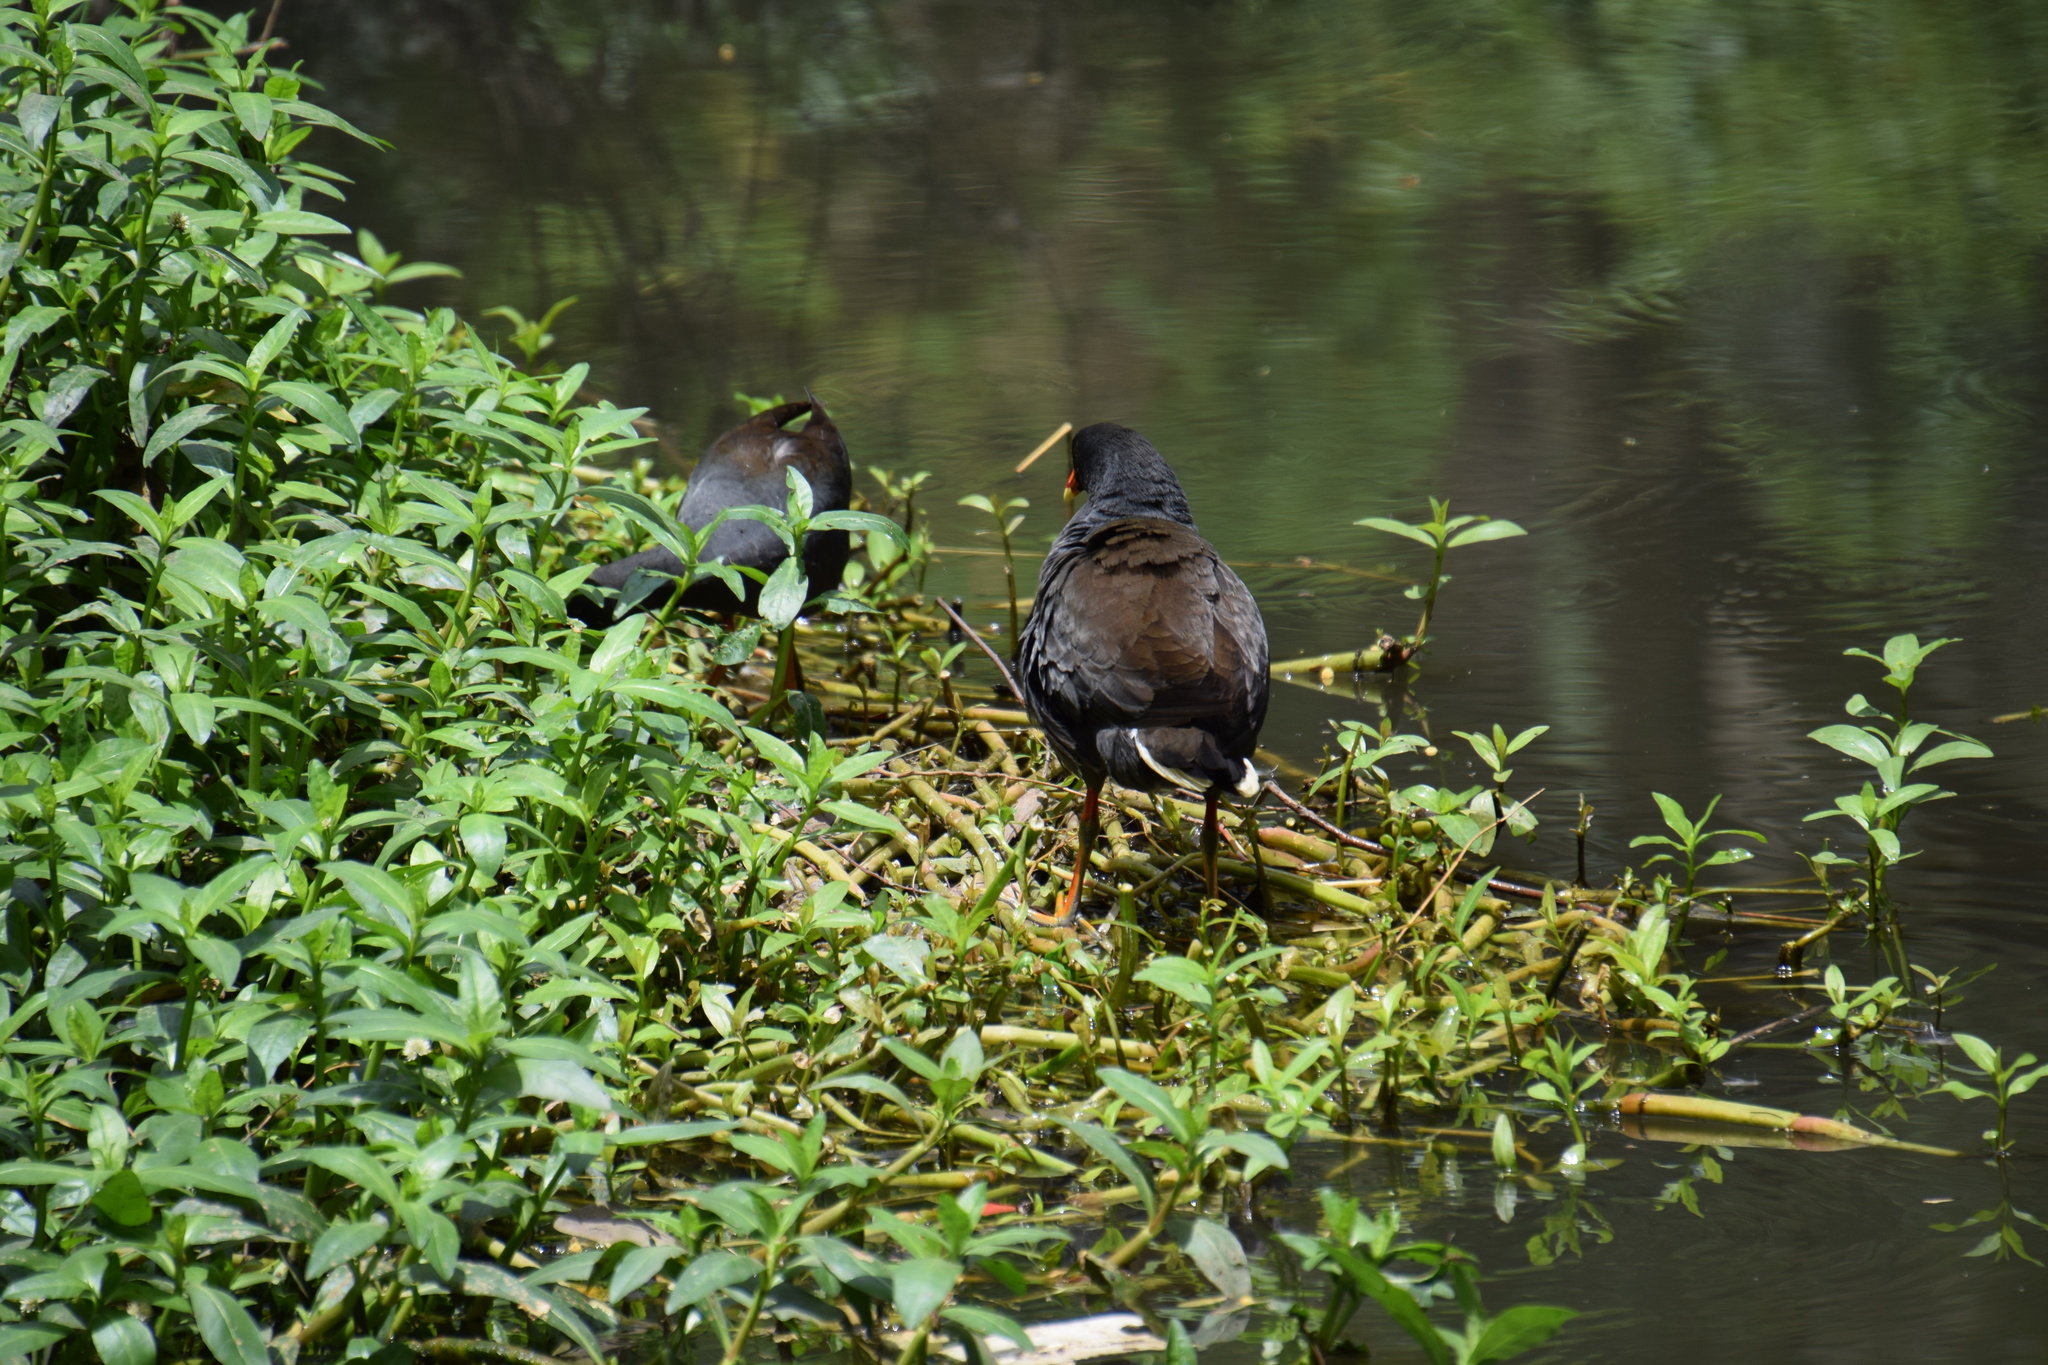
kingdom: Animalia
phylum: Chordata
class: Aves
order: Gruiformes
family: Rallidae
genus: Gallinula
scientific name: Gallinula tenebrosa
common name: Dusky moorhen
